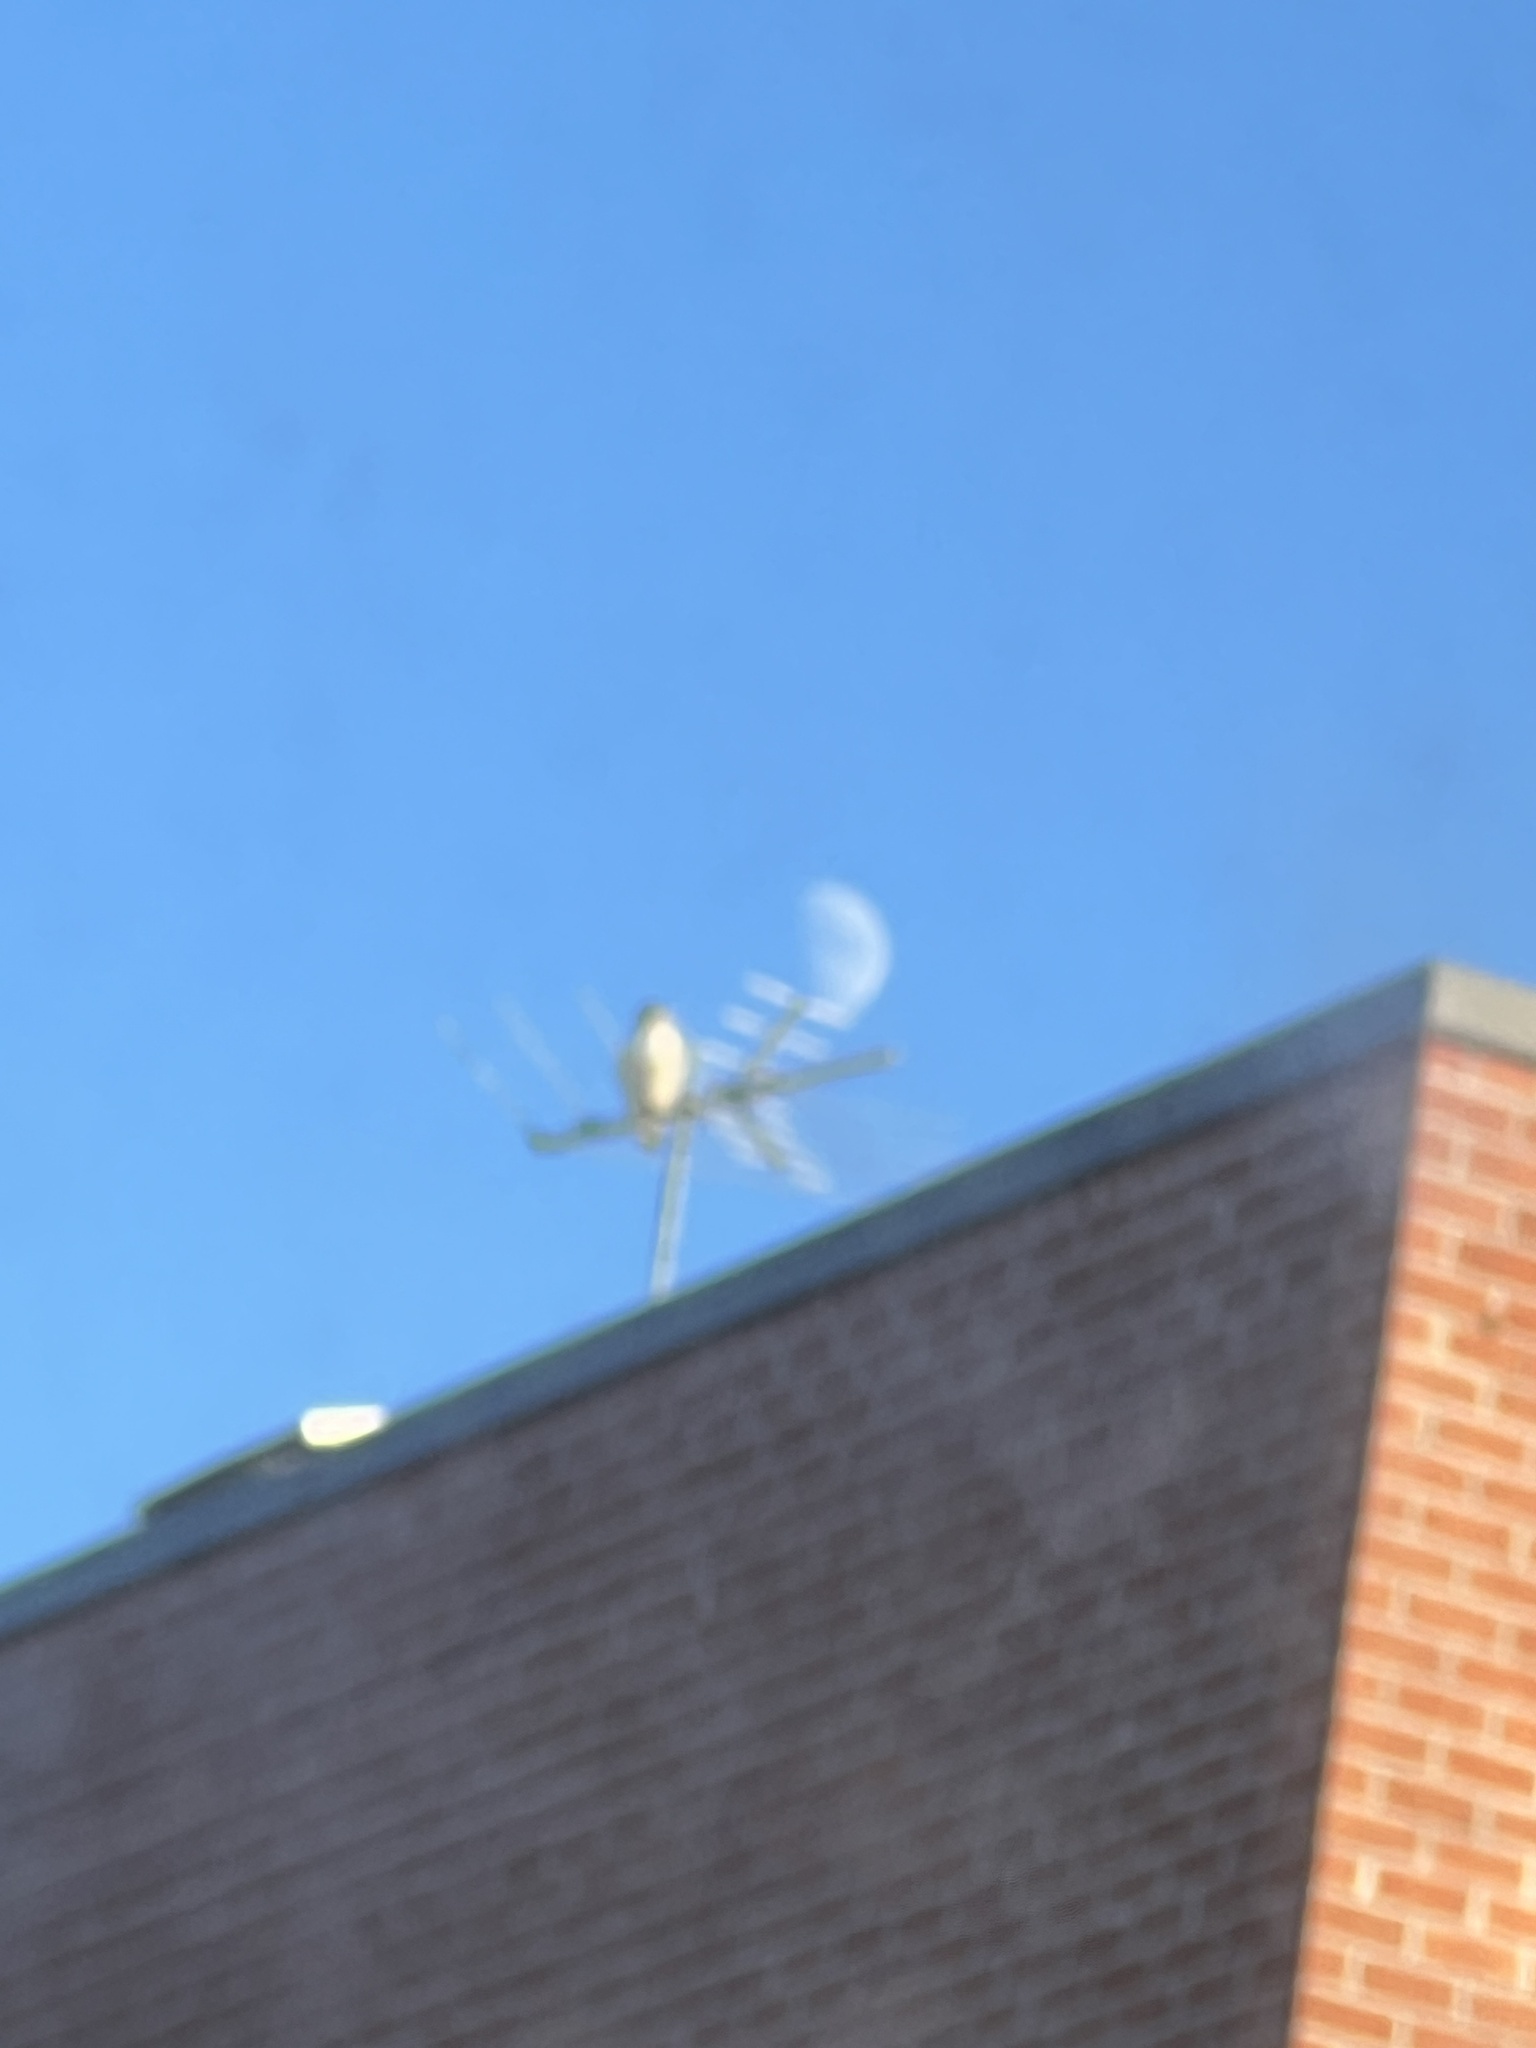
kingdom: Animalia
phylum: Chordata
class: Aves
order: Accipitriformes
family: Accipitridae
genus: Buteo
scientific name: Buteo jamaicensis
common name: Red-tailed hawk
